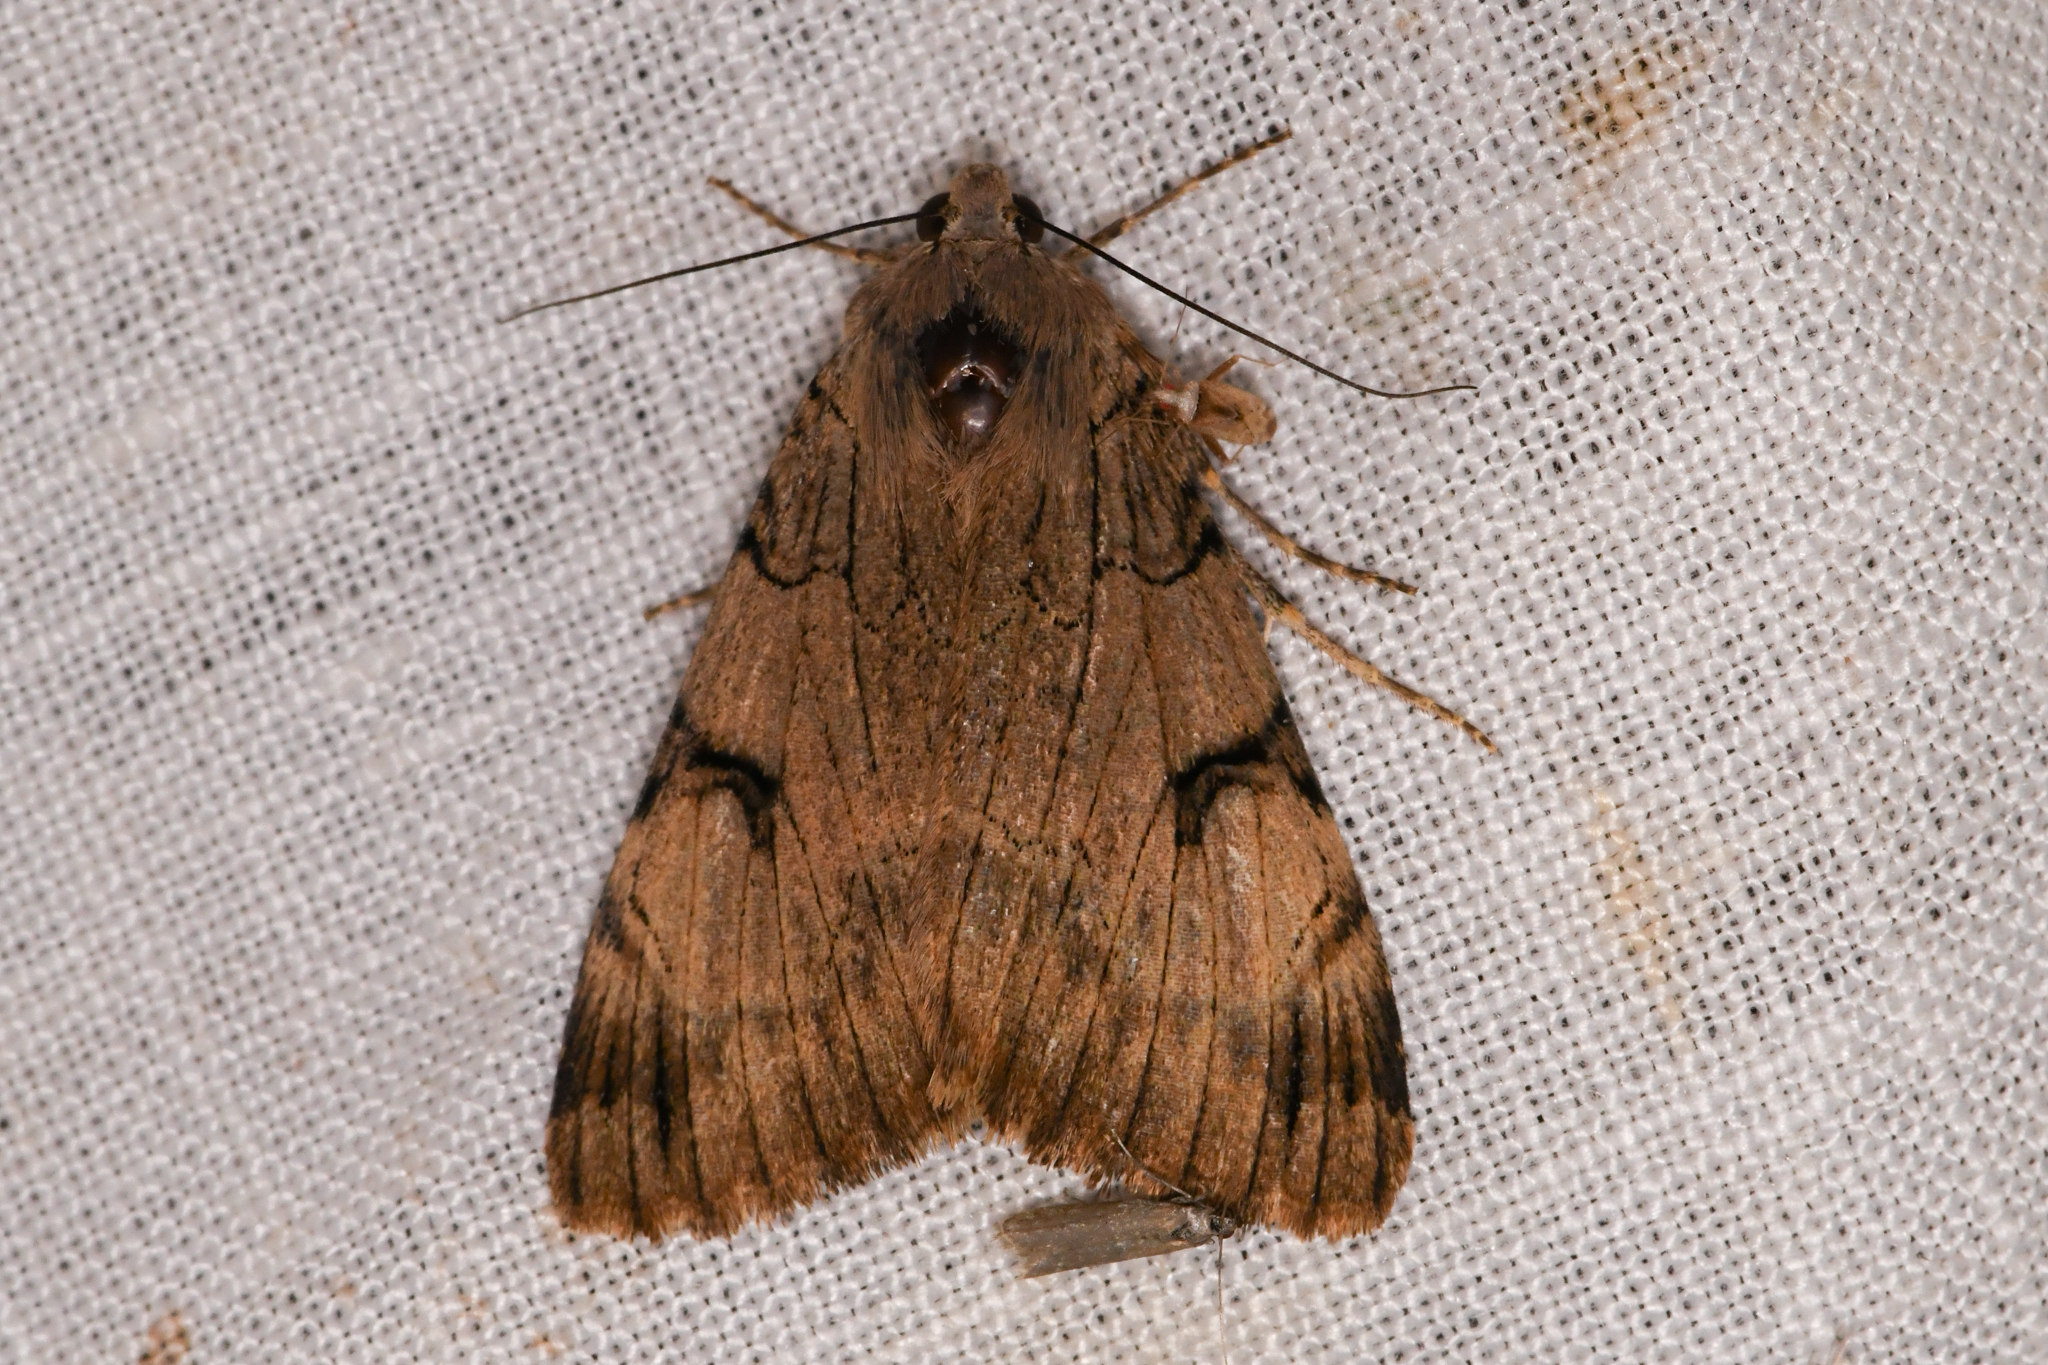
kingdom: Animalia
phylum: Arthropoda
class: Insecta
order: Lepidoptera
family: Erebidae
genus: Drasteria
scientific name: Drasteria ochracea
